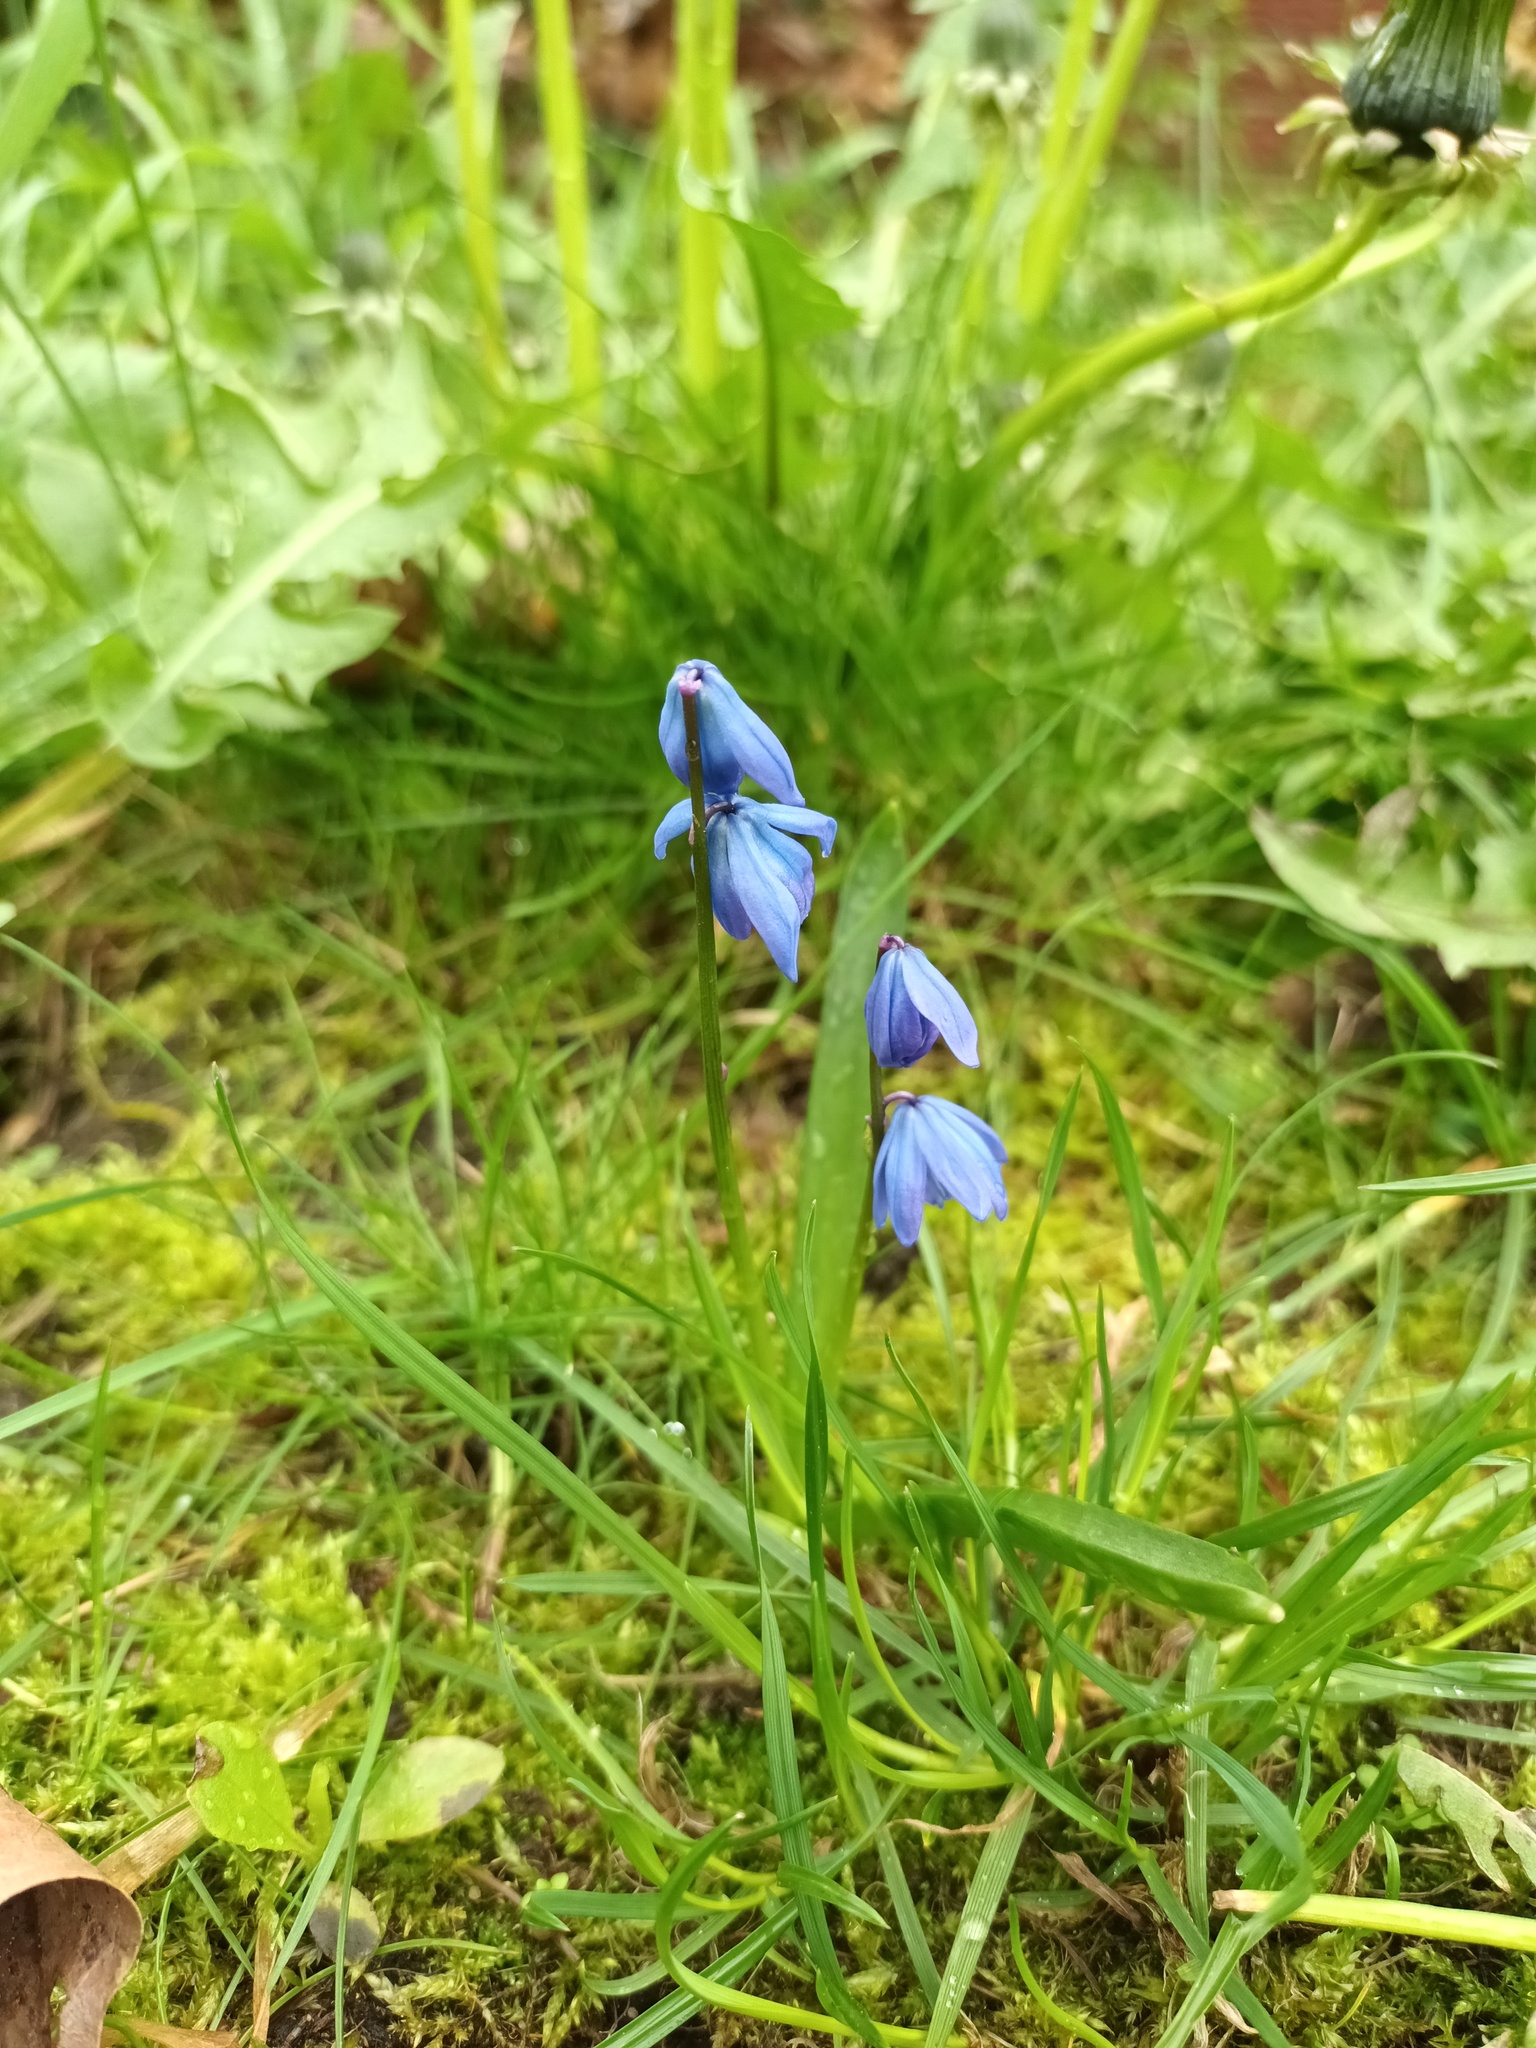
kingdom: Plantae
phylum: Tracheophyta
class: Liliopsida
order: Asparagales
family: Asparagaceae
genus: Scilla
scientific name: Scilla siberica
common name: Siberian squill
